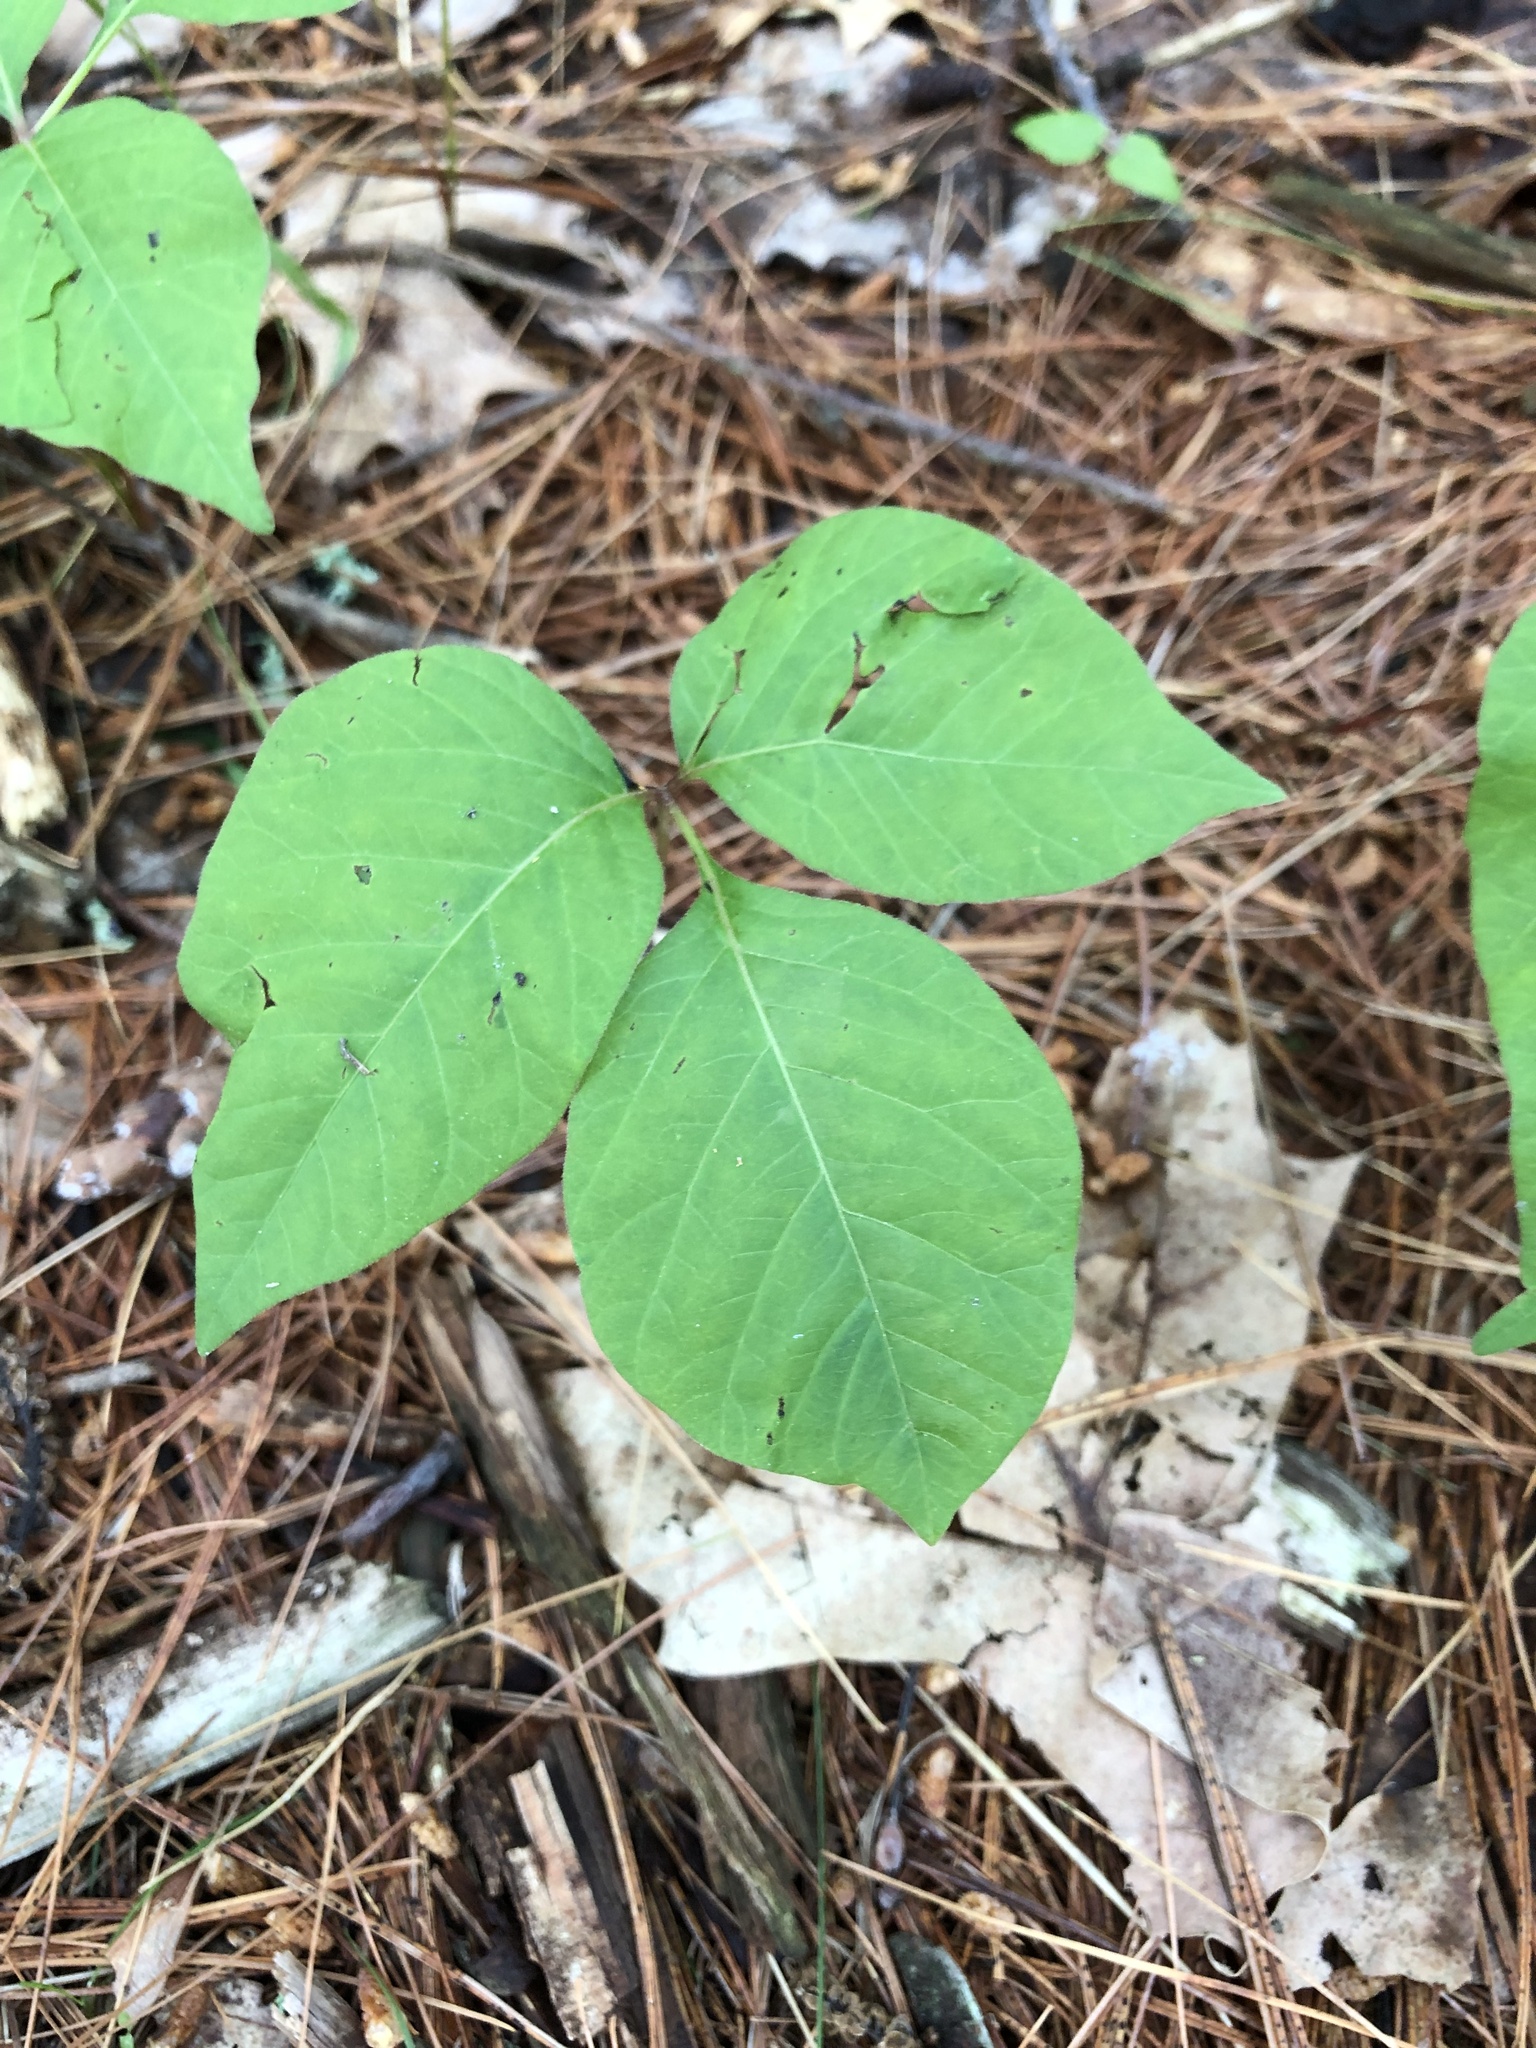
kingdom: Plantae
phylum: Tracheophyta
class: Magnoliopsida
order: Sapindales
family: Anacardiaceae
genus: Toxicodendron
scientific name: Toxicodendron radicans
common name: Poison ivy
